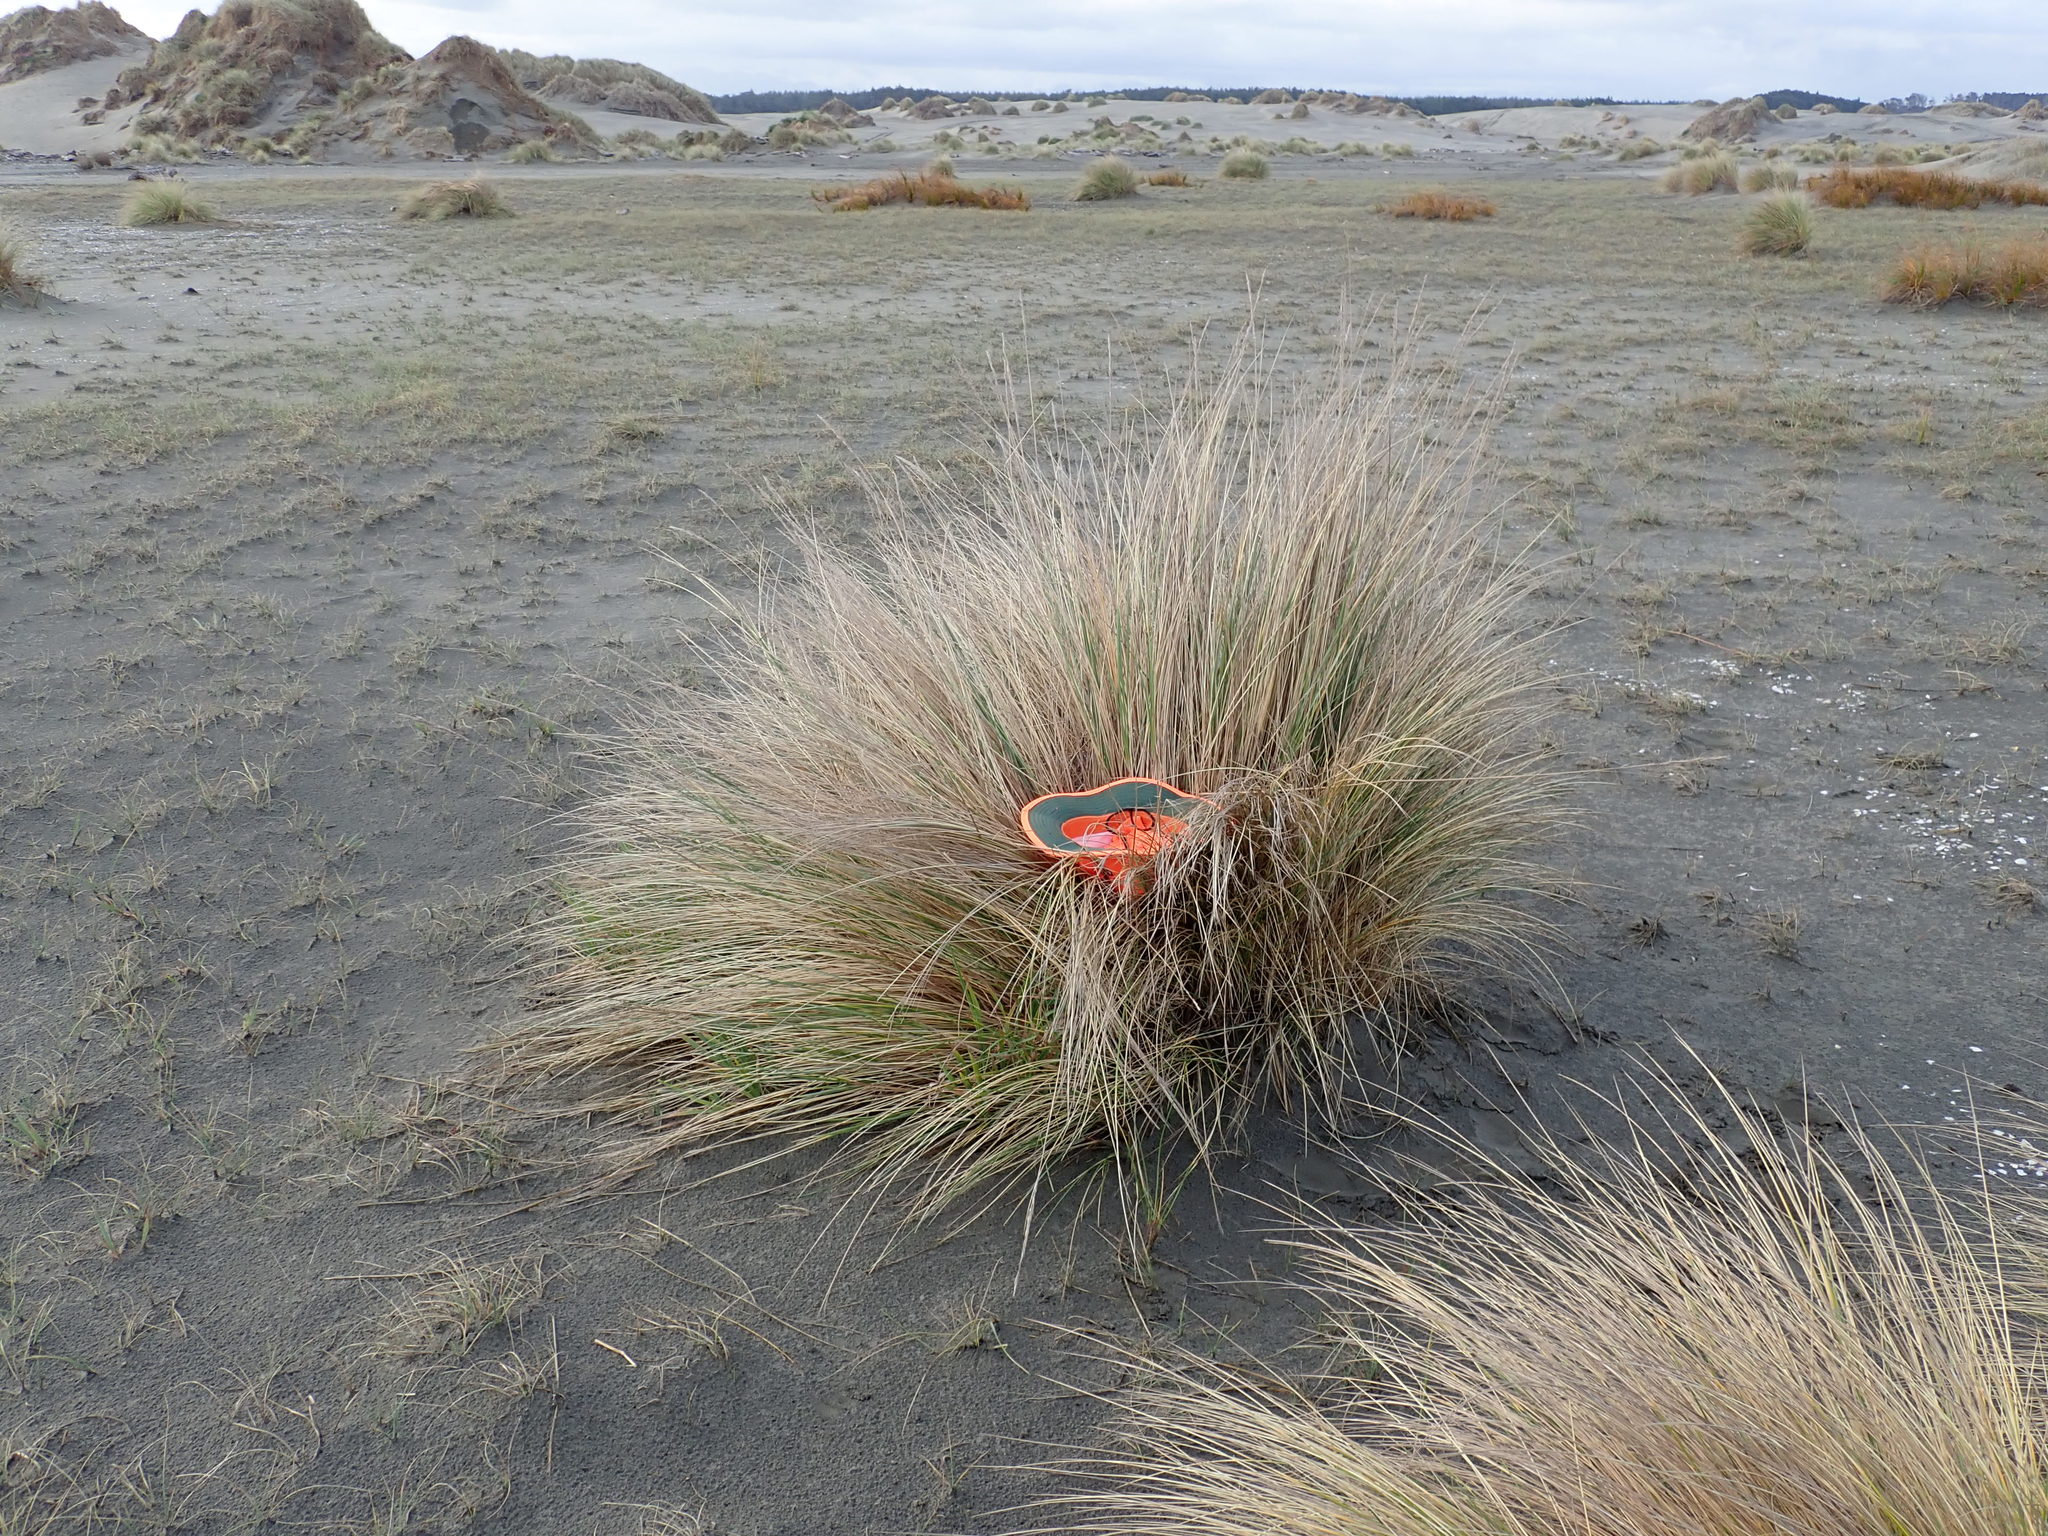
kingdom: Animalia
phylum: Arthropoda
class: Arachnida
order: Araneae
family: Thomisidae
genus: Sidymella
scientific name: Sidymella trapezia
